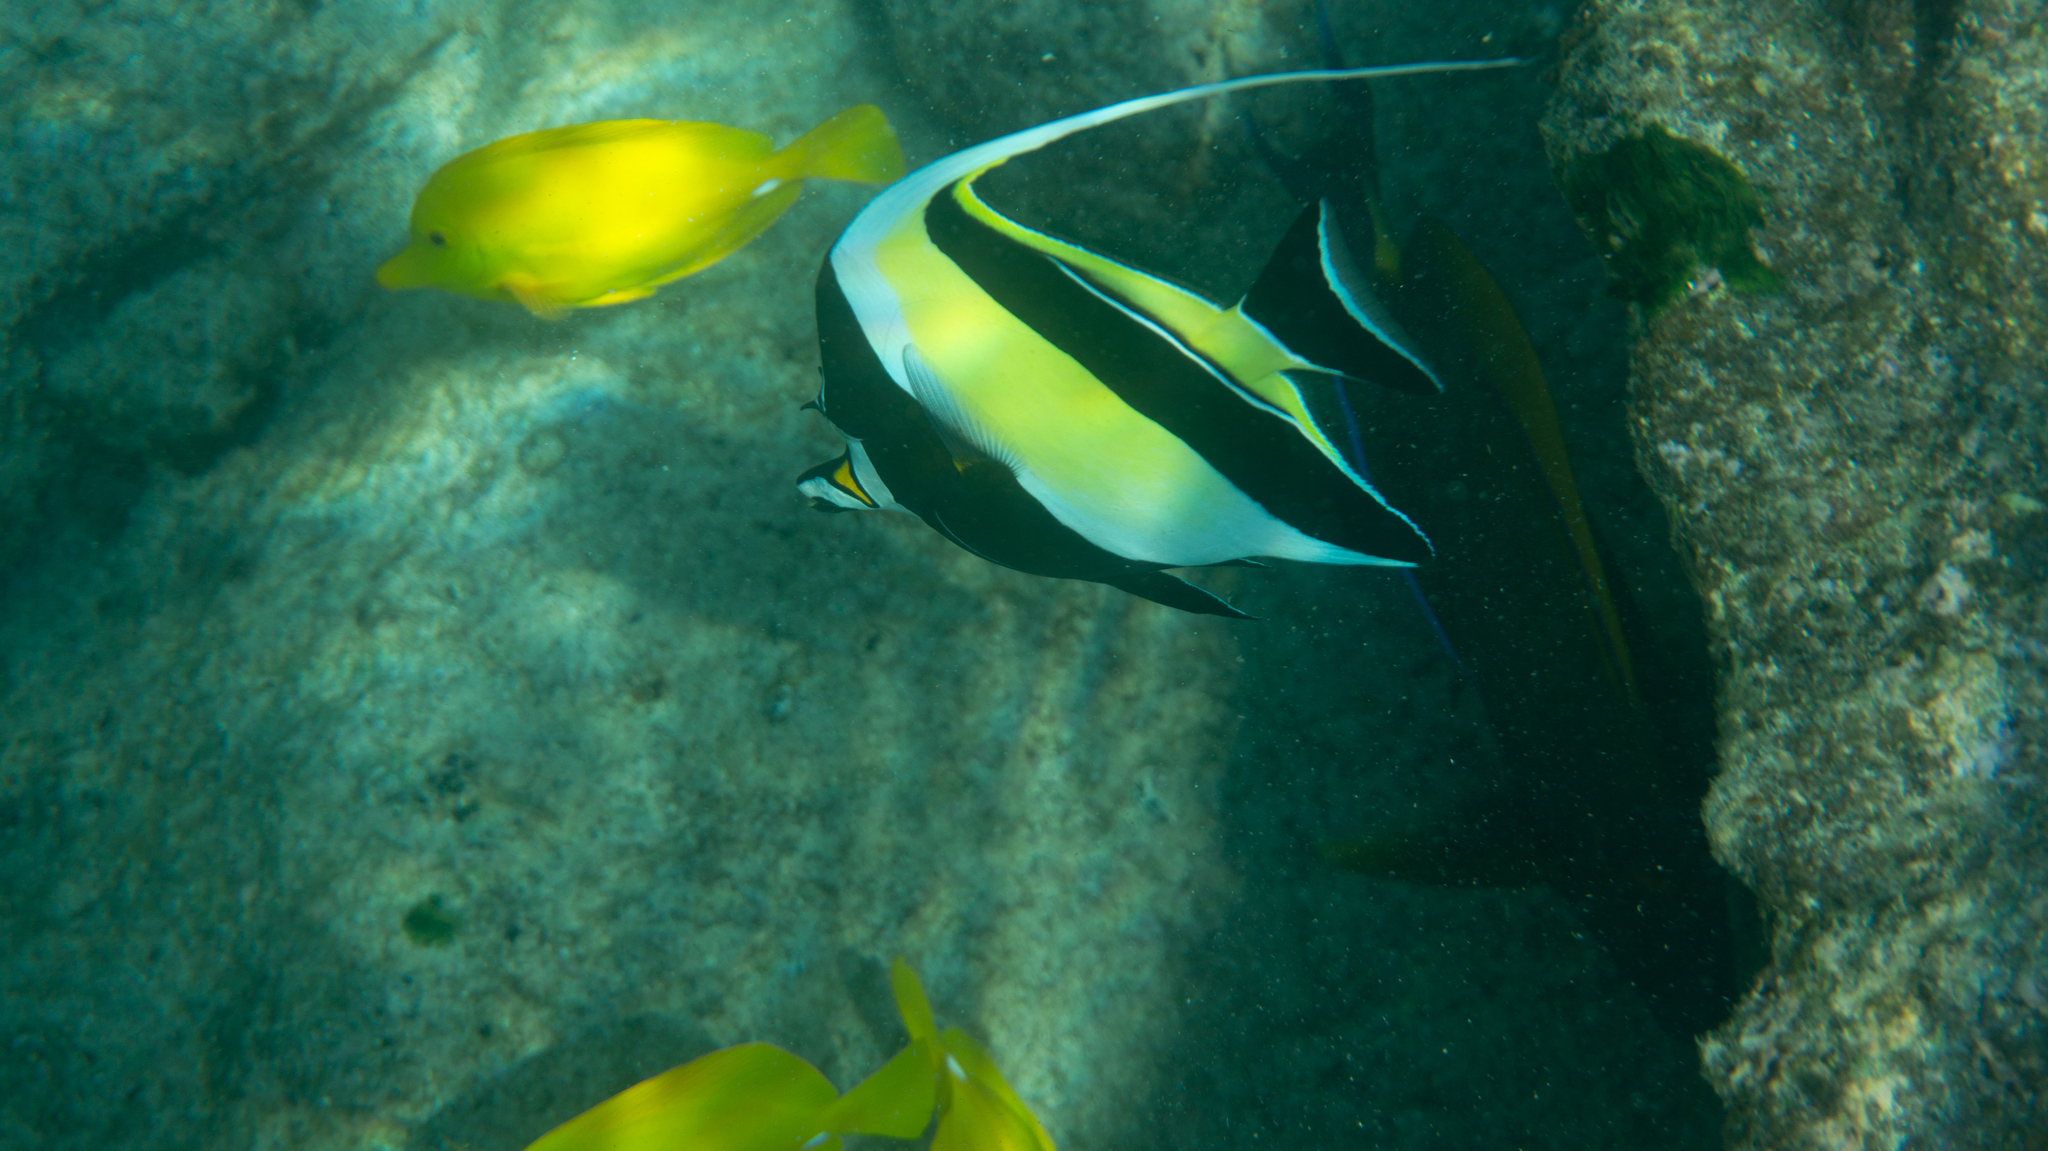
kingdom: Animalia
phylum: Chordata
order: Perciformes
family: Zanclidae
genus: Zanclus
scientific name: Zanclus cornutus
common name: Moorish idol
